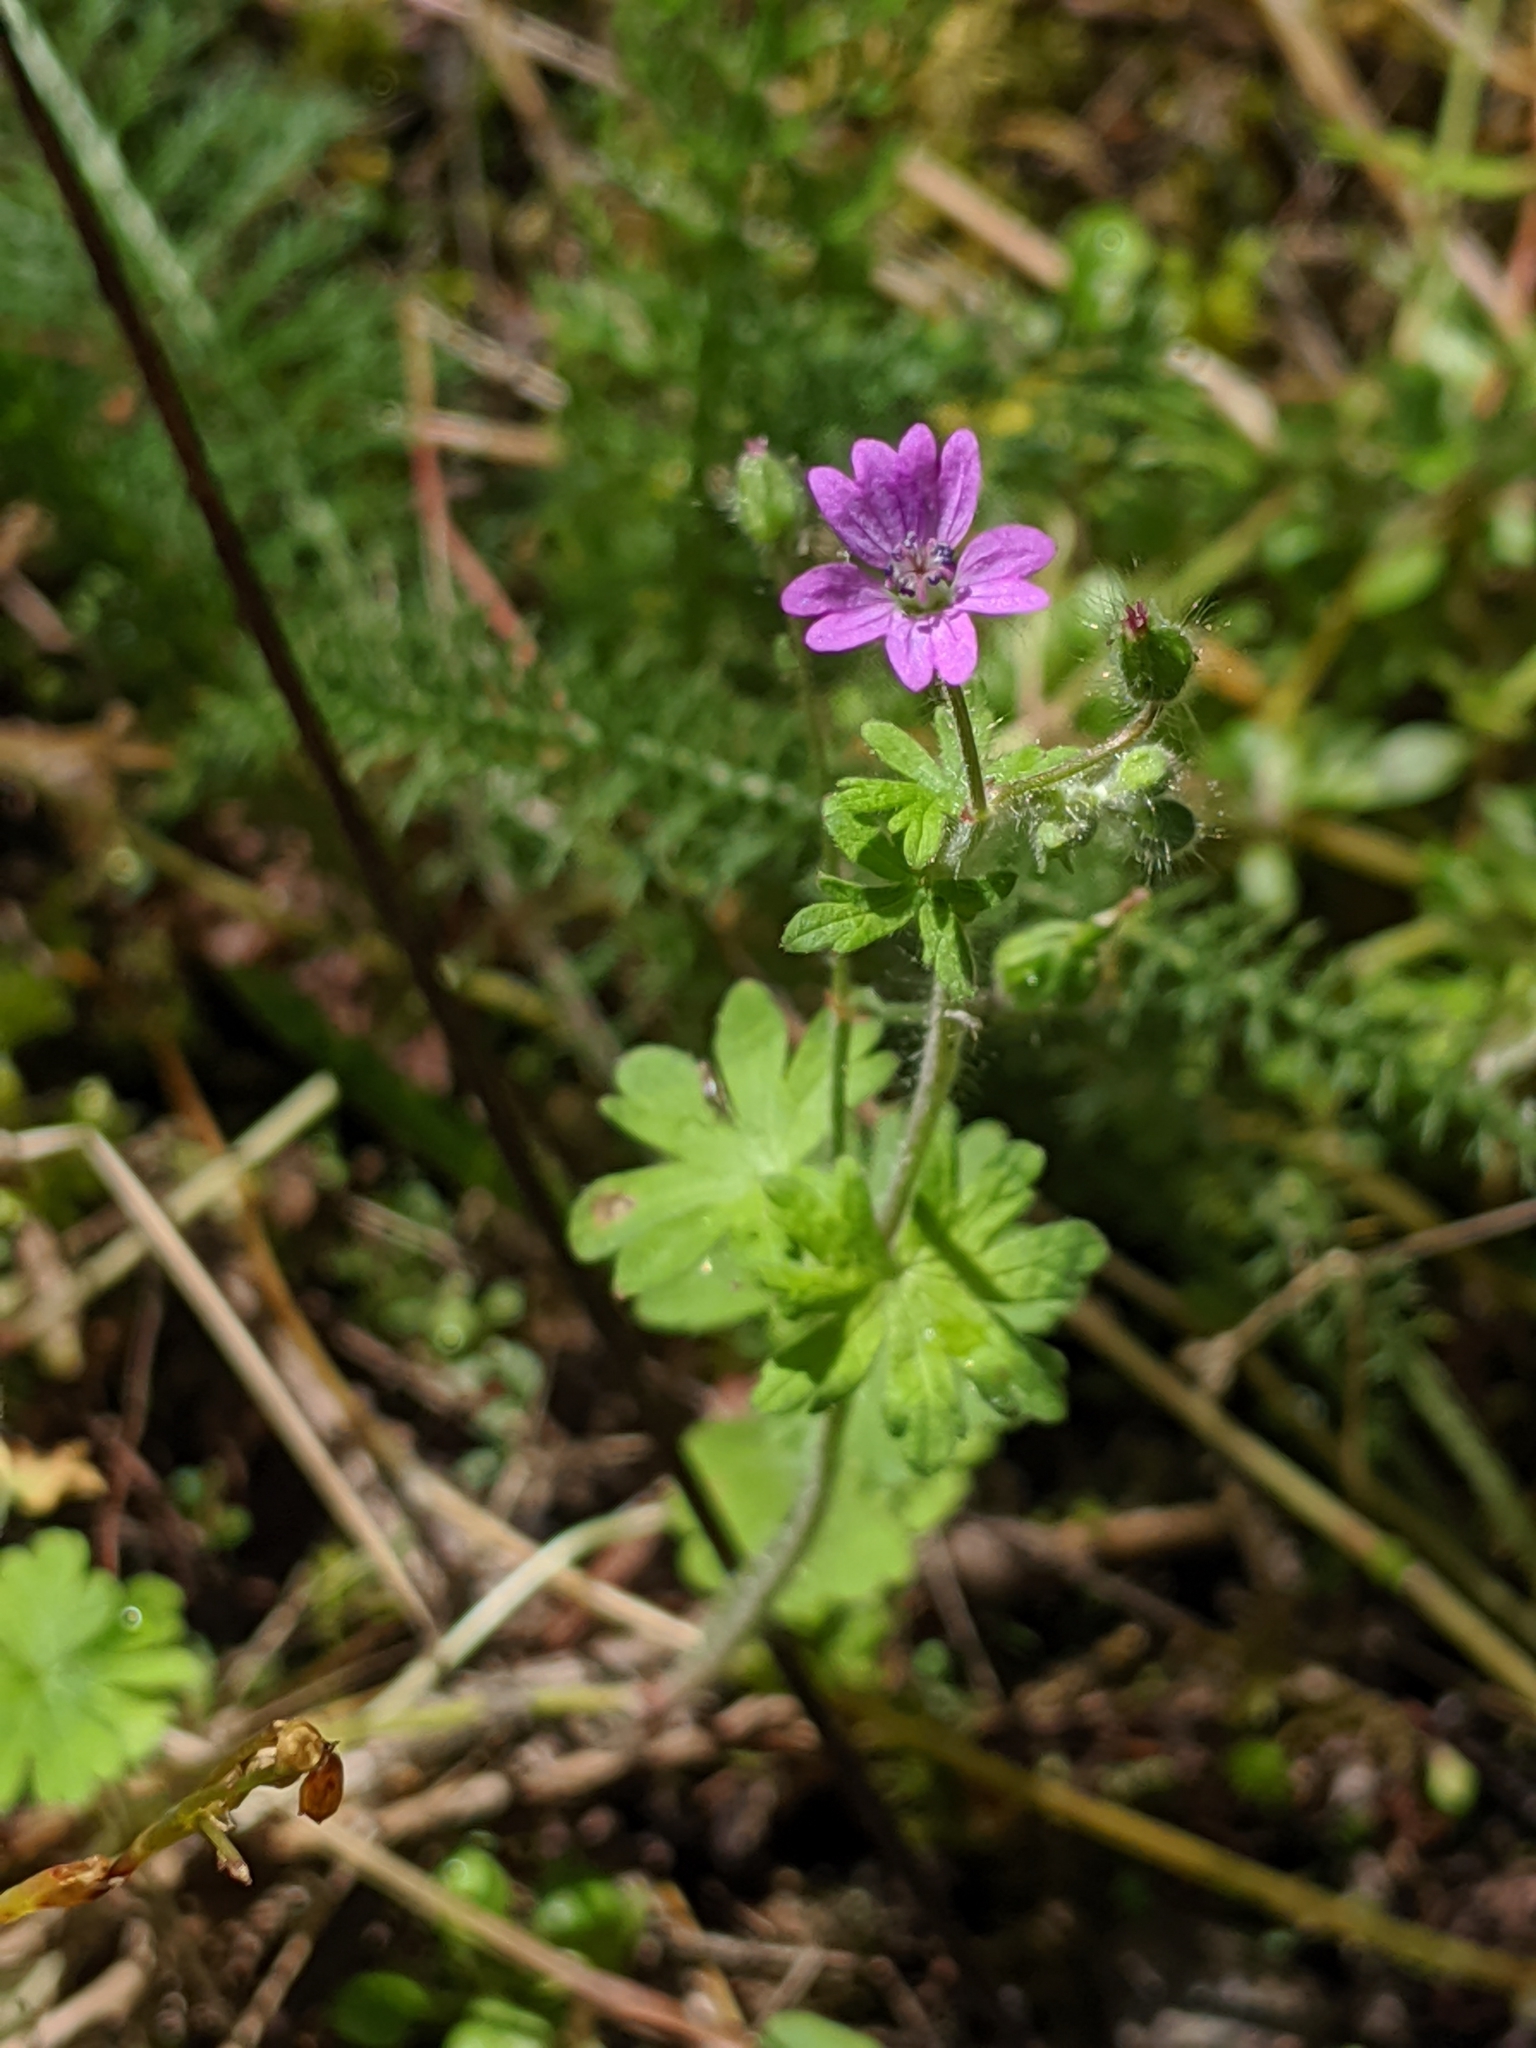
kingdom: Plantae
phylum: Tracheophyta
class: Magnoliopsida
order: Geraniales
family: Geraniaceae
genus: Geranium
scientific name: Geranium molle
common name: Dove's-foot crane's-bill
